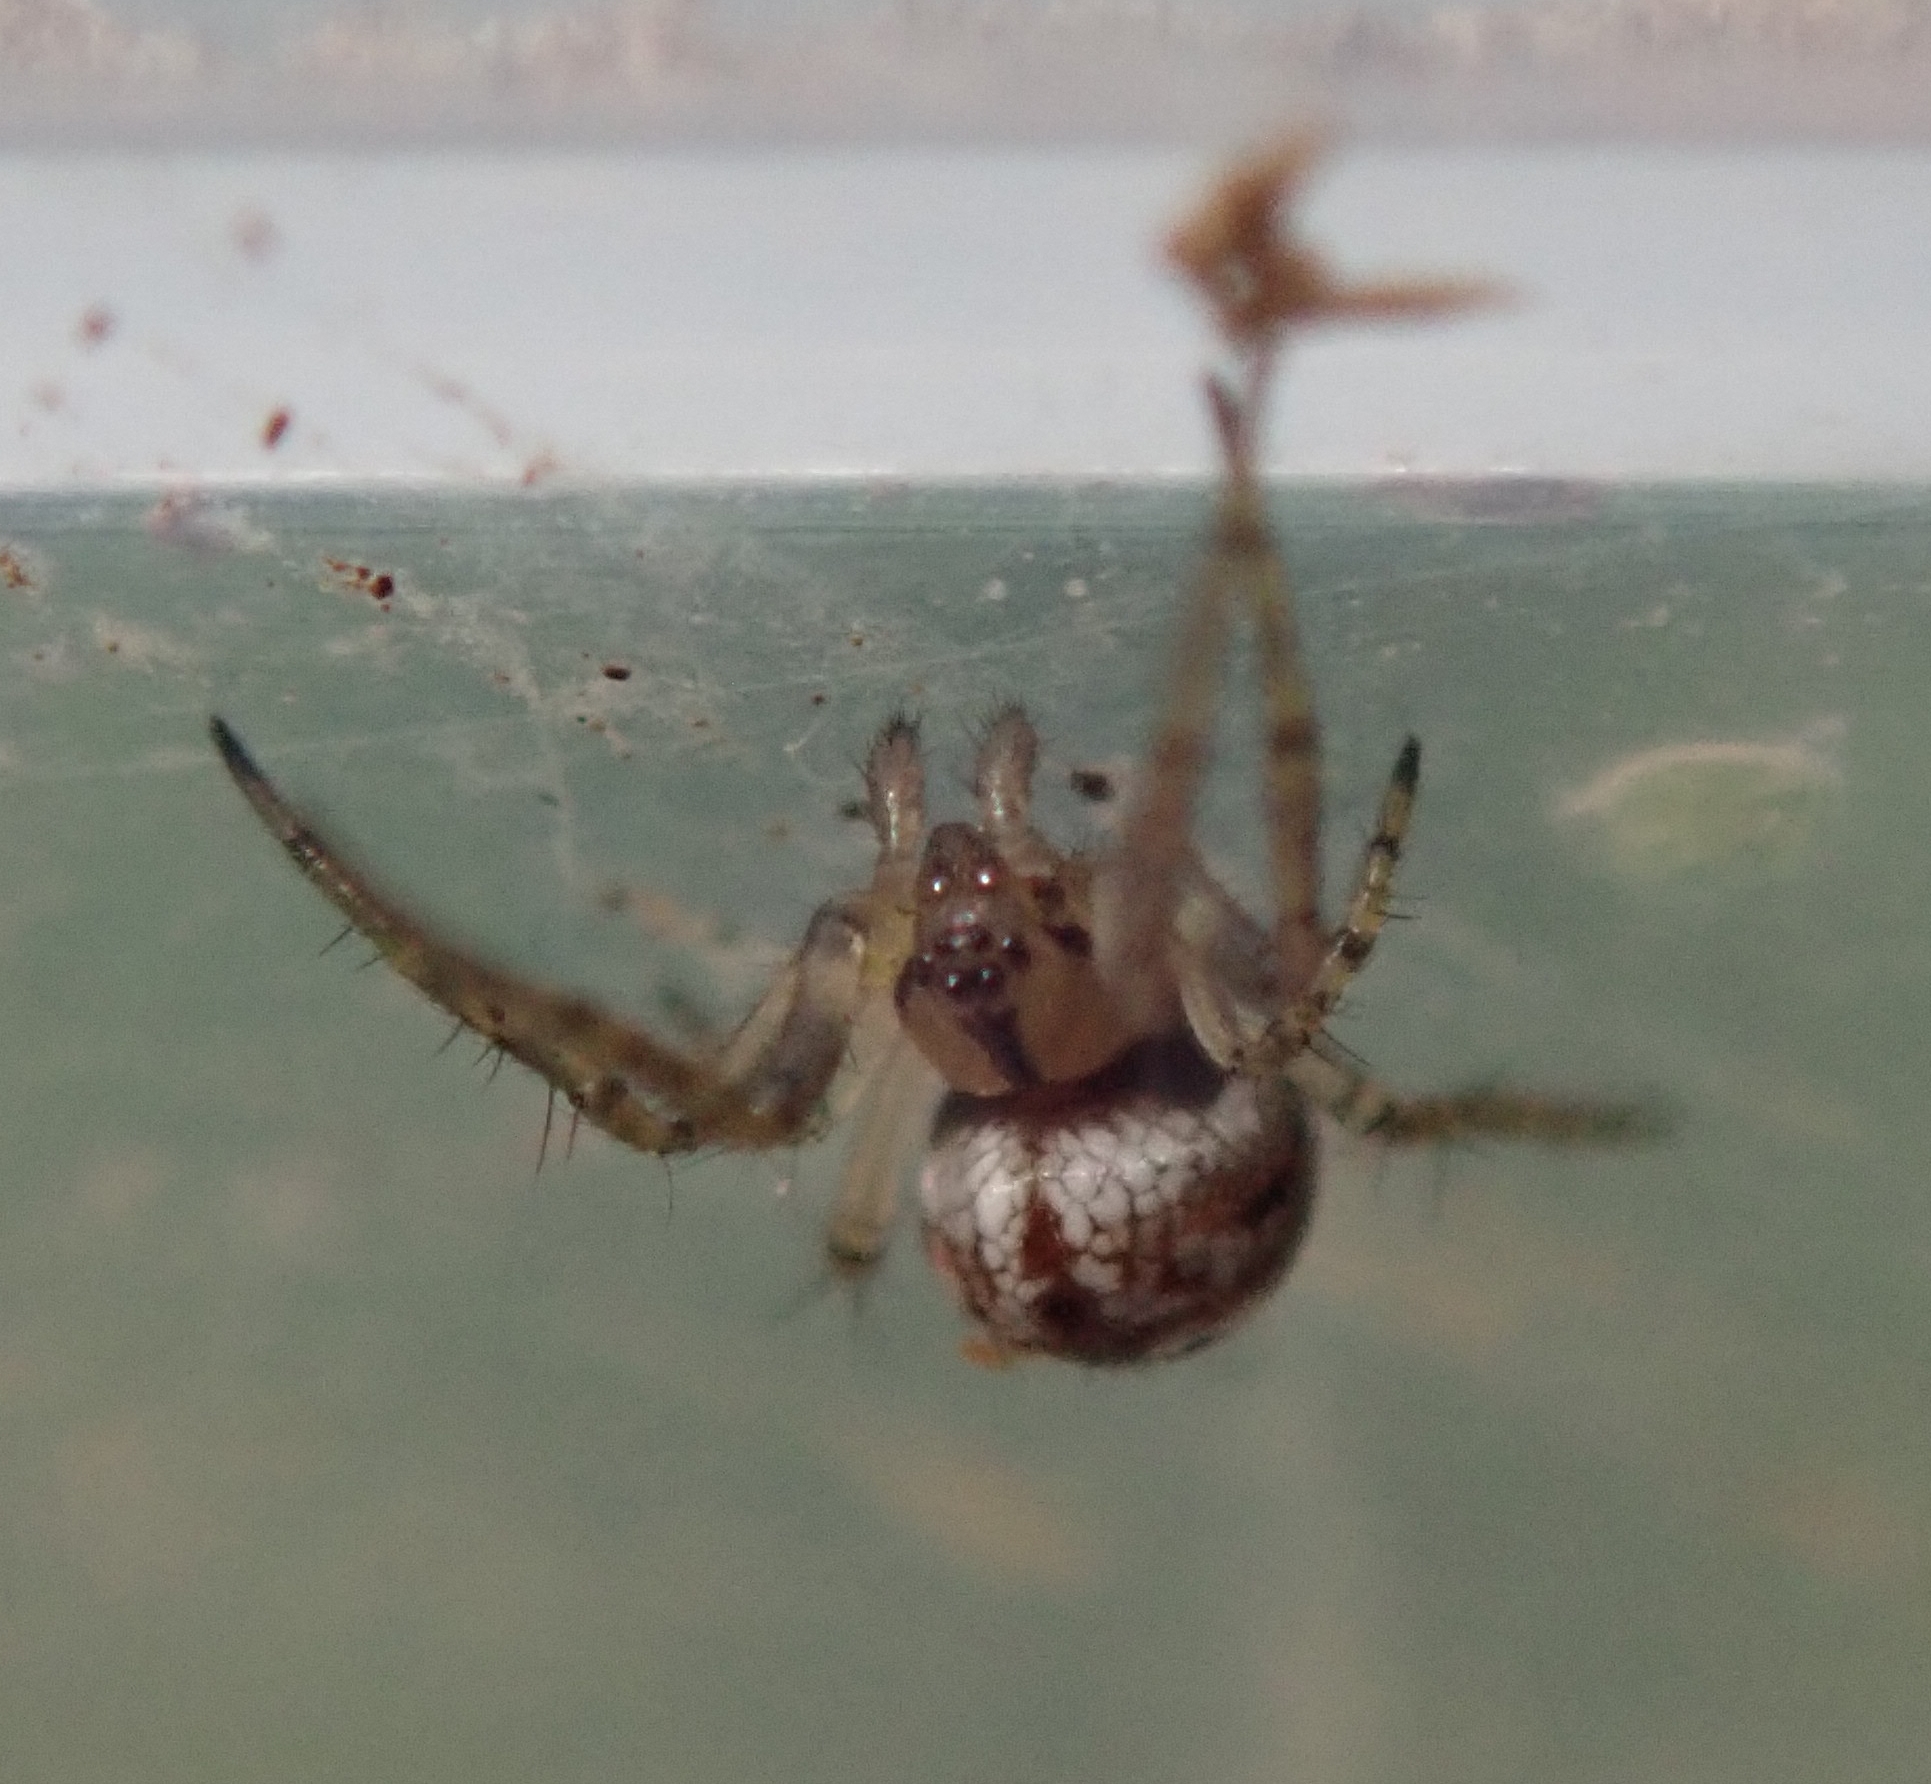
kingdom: Animalia
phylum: Arthropoda
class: Arachnida
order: Araneae
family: Araneidae
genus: Mangora
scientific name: Mangora acalypha
